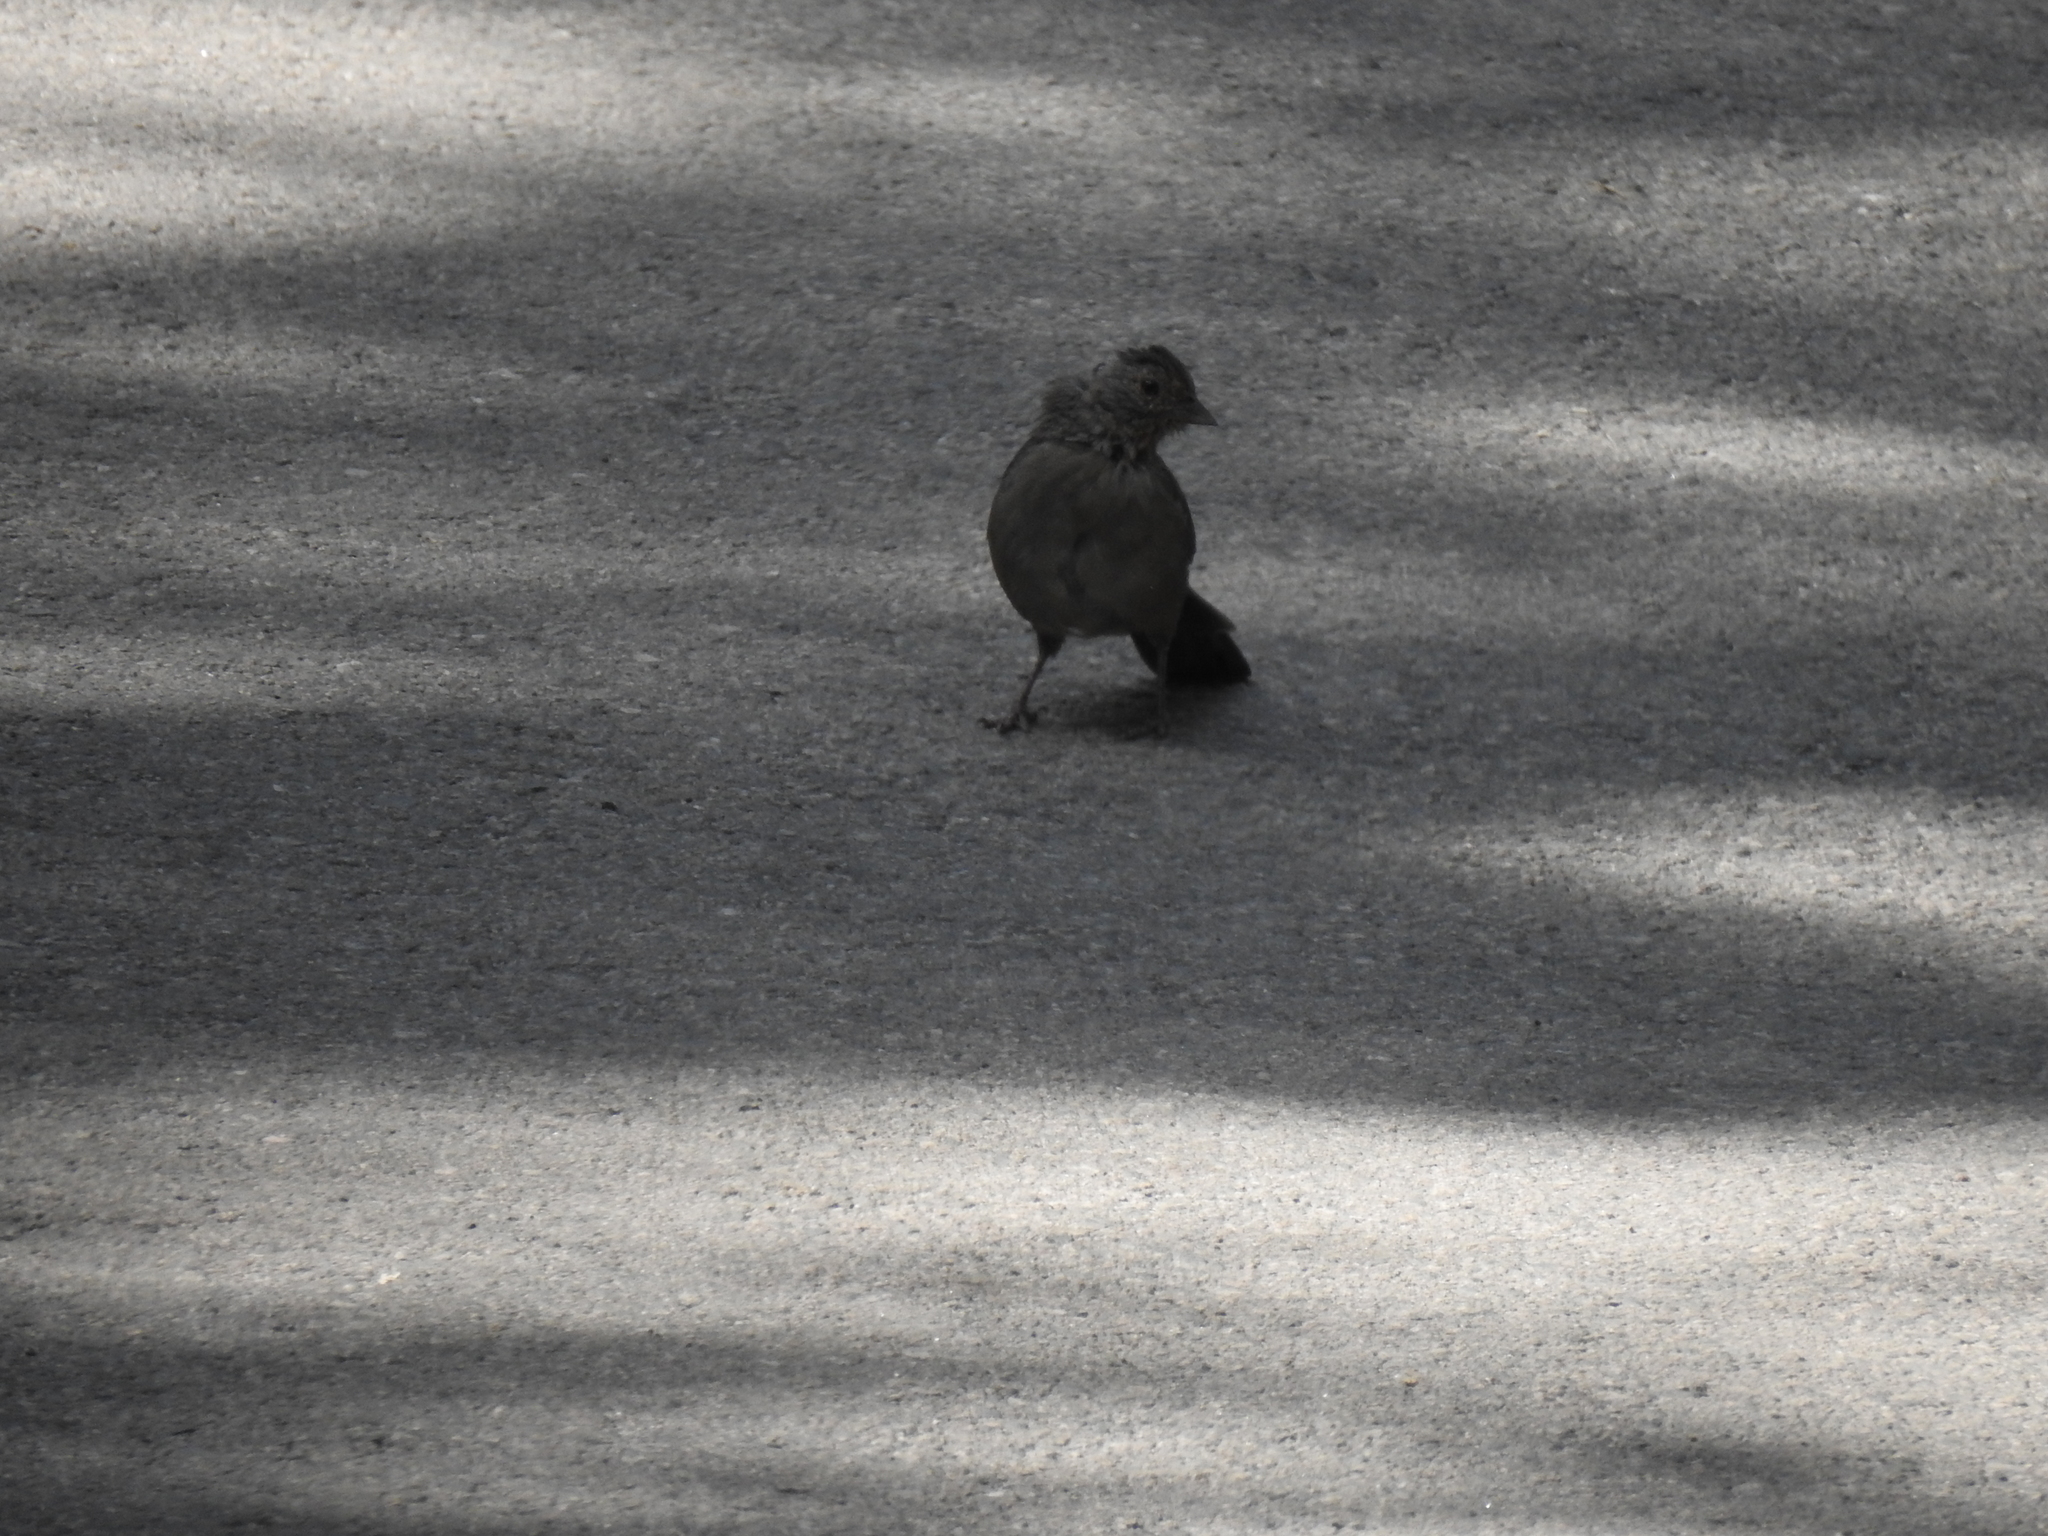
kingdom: Animalia
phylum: Chordata
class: Aves
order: Passeriformes
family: Passerellidae
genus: Melozone
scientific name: Melozone crissalis
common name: California towhee
